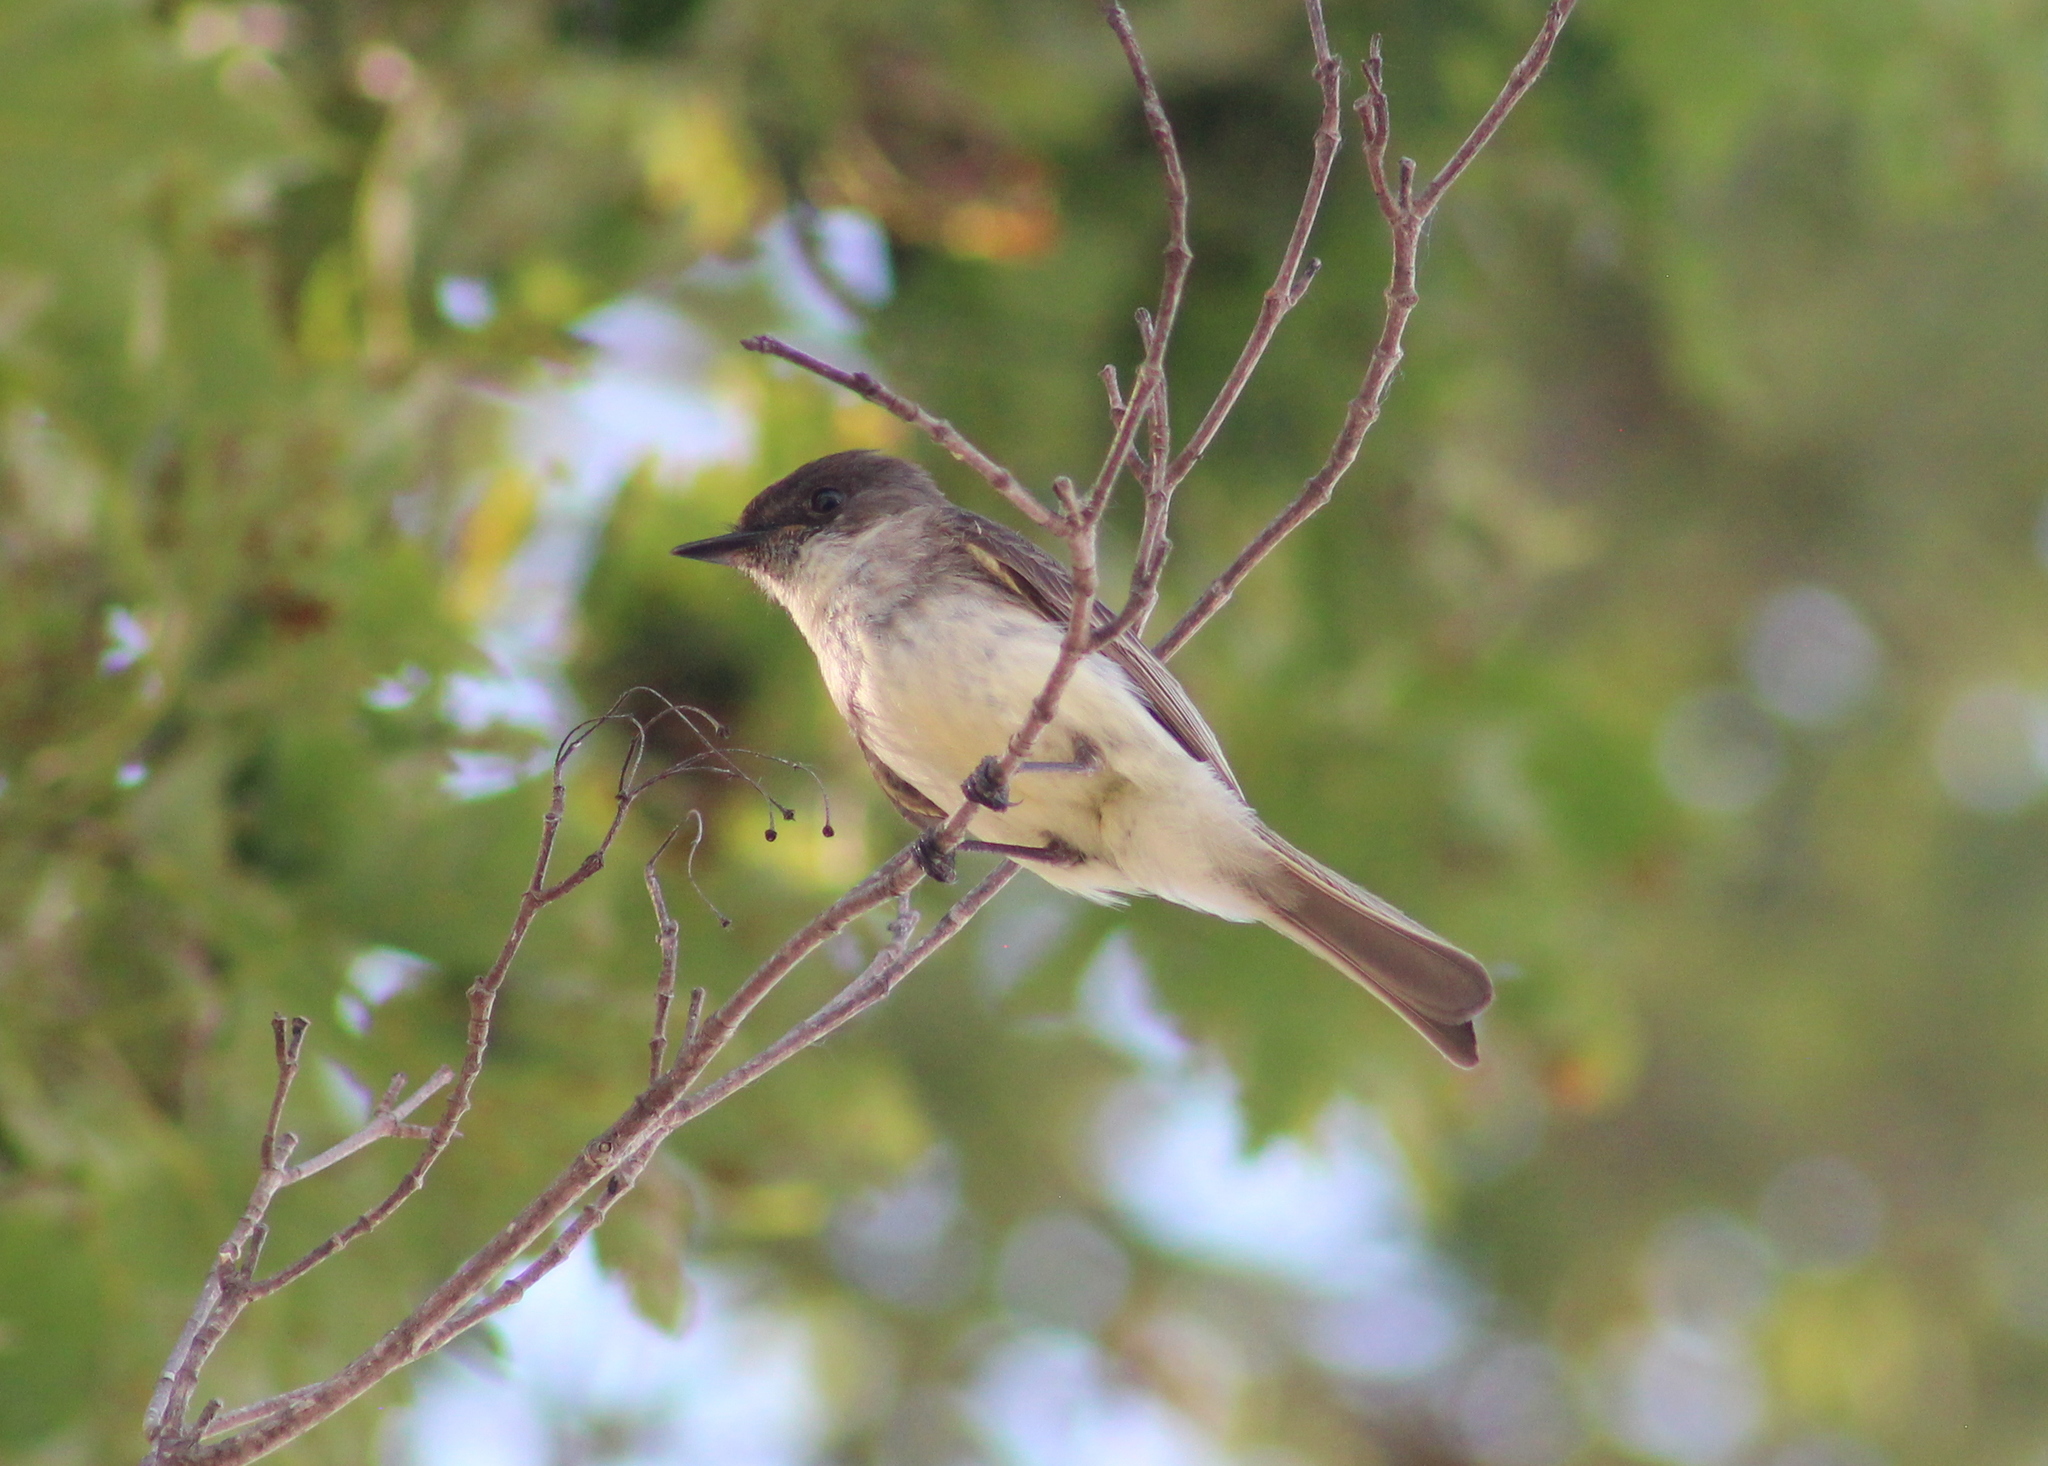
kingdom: Animalia
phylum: Chordata
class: Aves
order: Passeriformes
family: Tyrannidae
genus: Sayornis
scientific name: Sayornis phoebe
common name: Eastern phoebe
